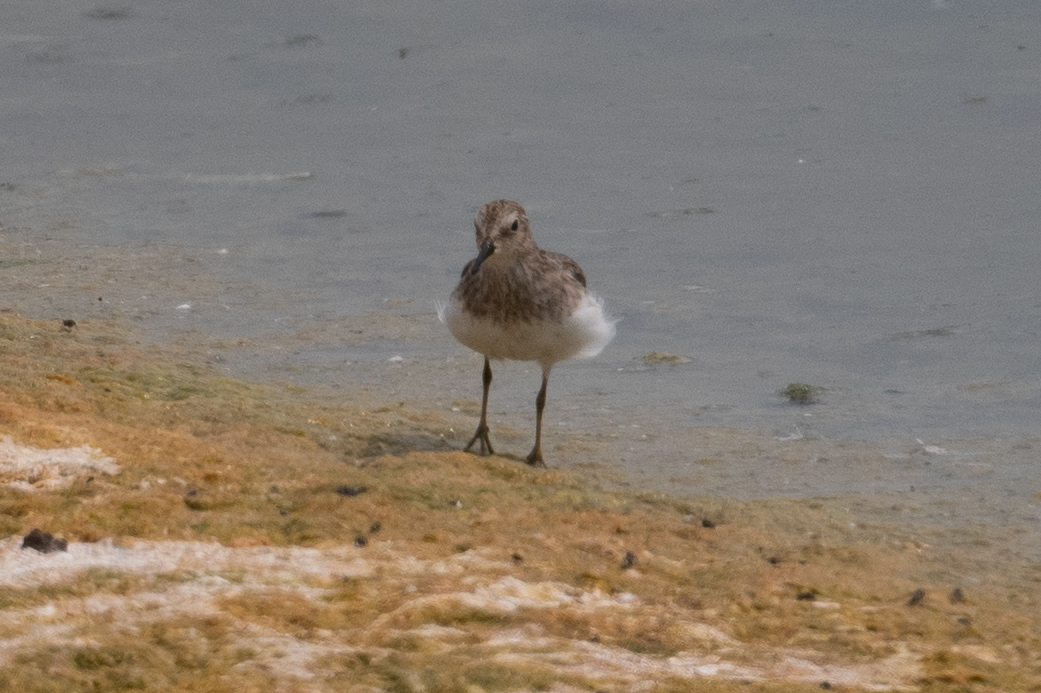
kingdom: Animalia
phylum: Chordata
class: Aves
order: Charadriiformes
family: Scolopacidae
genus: Calidris
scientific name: Calidris minutilla
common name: Least sandpiper
